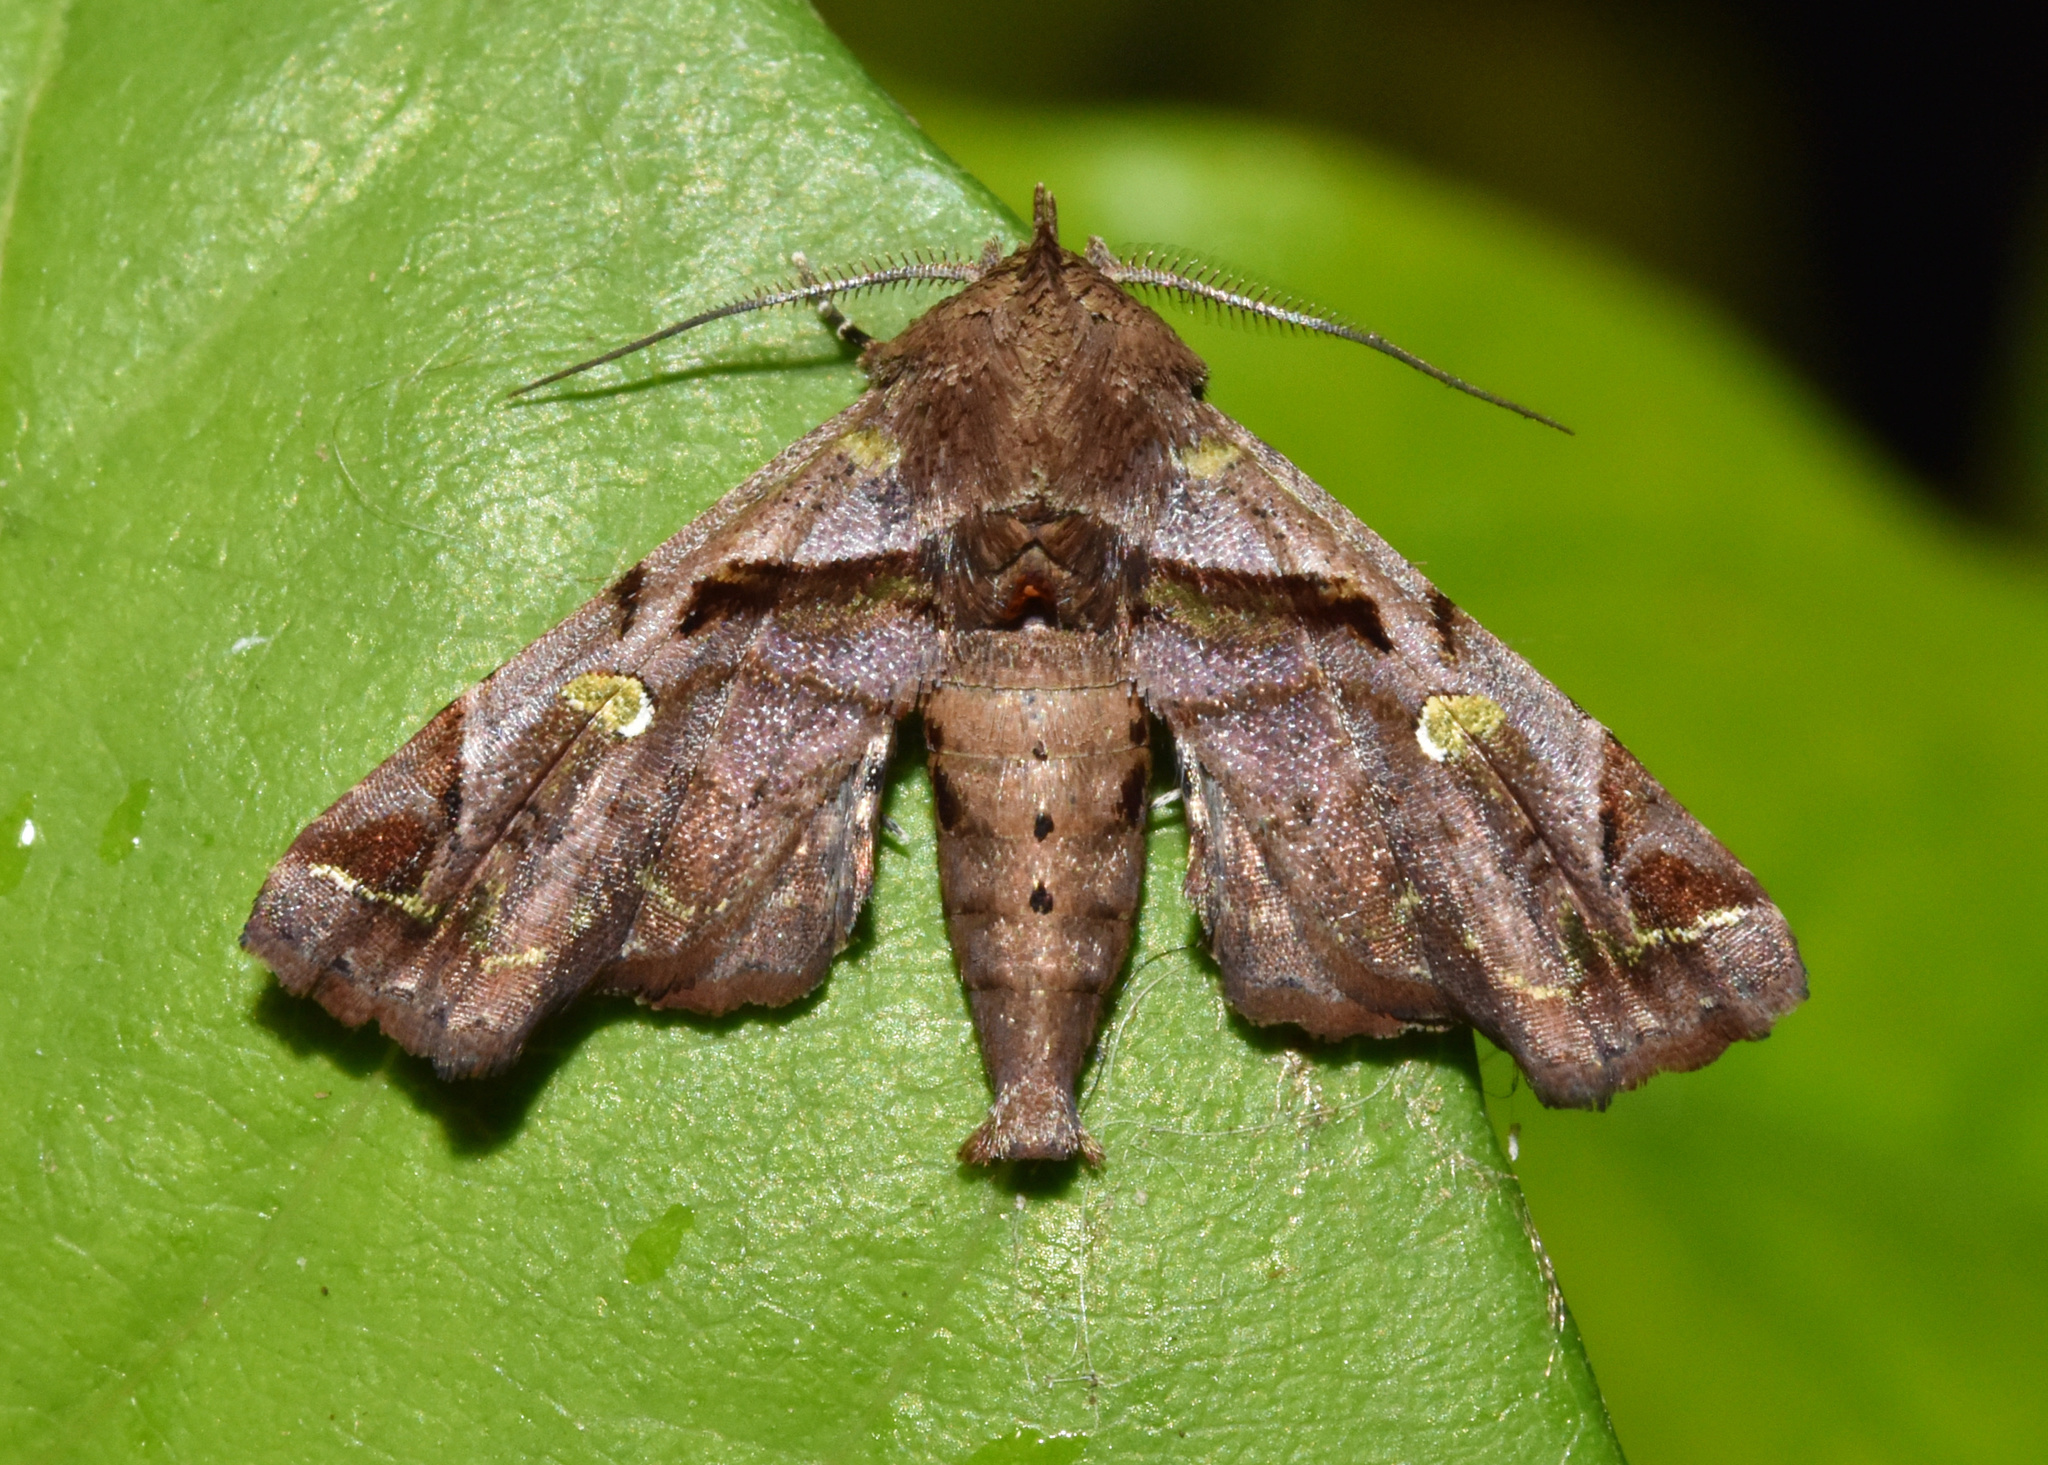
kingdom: Animalia
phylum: Arthropoda
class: Insecta
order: Lepidoptera
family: Euteliidae
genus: Penicillaria
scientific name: Penicillaria ethiopica
